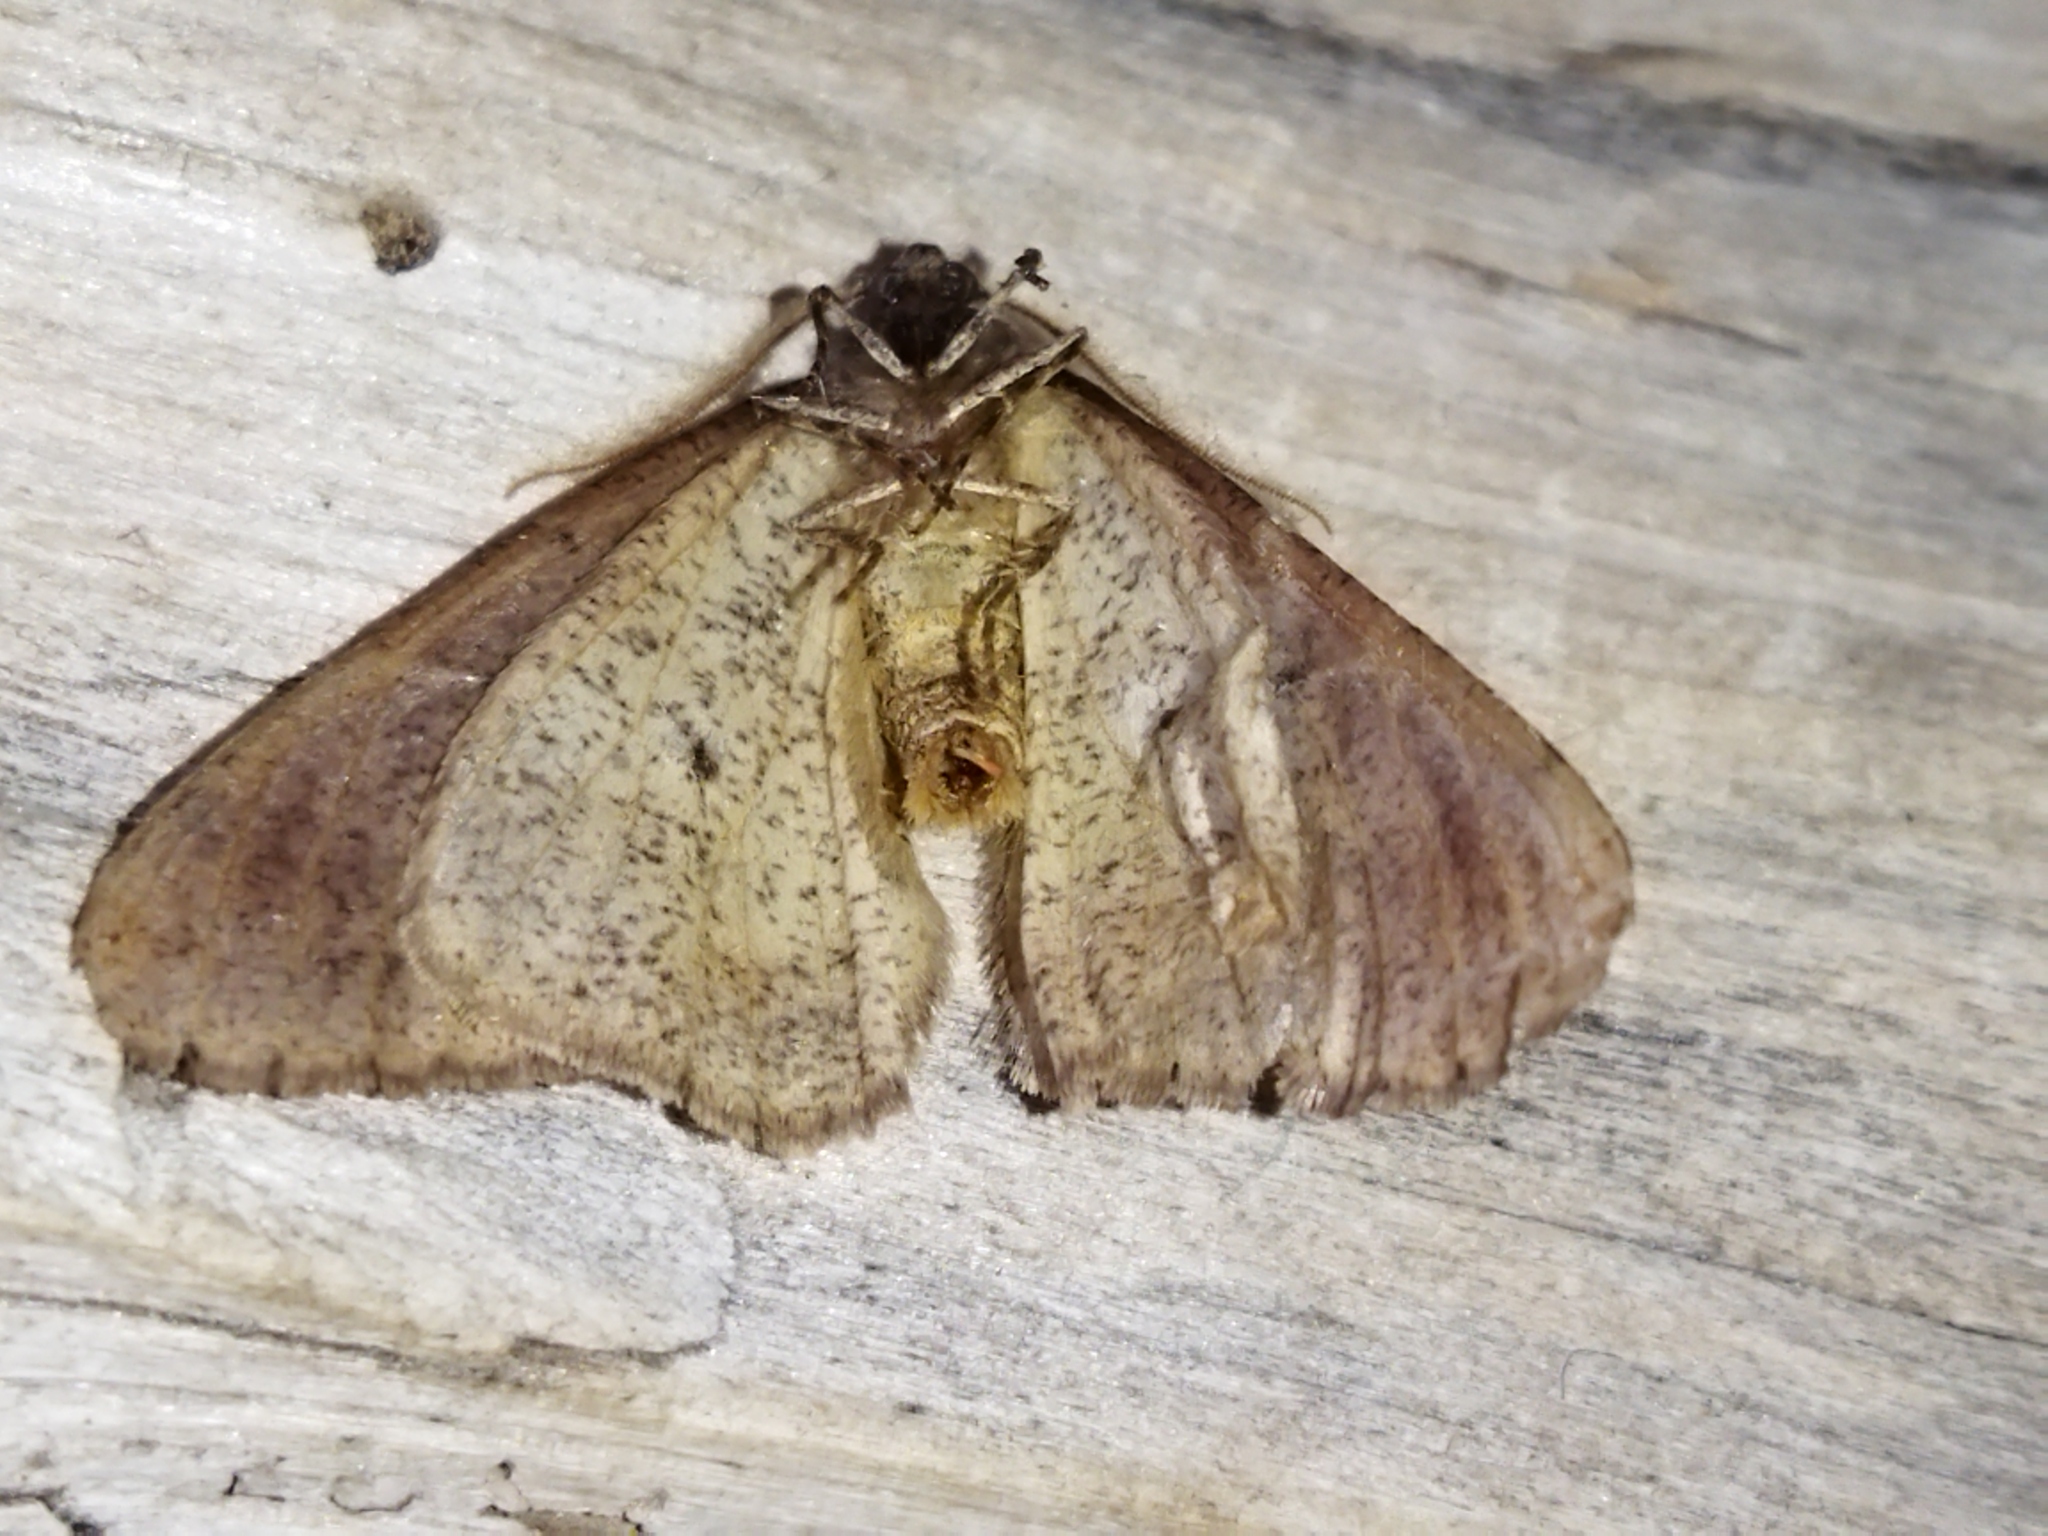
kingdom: Animalia
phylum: Arthropoda
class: Insecta
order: Lepidoptera
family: Geometridae
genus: Erannis
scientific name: Erannis defoliaria
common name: Mottled umber
